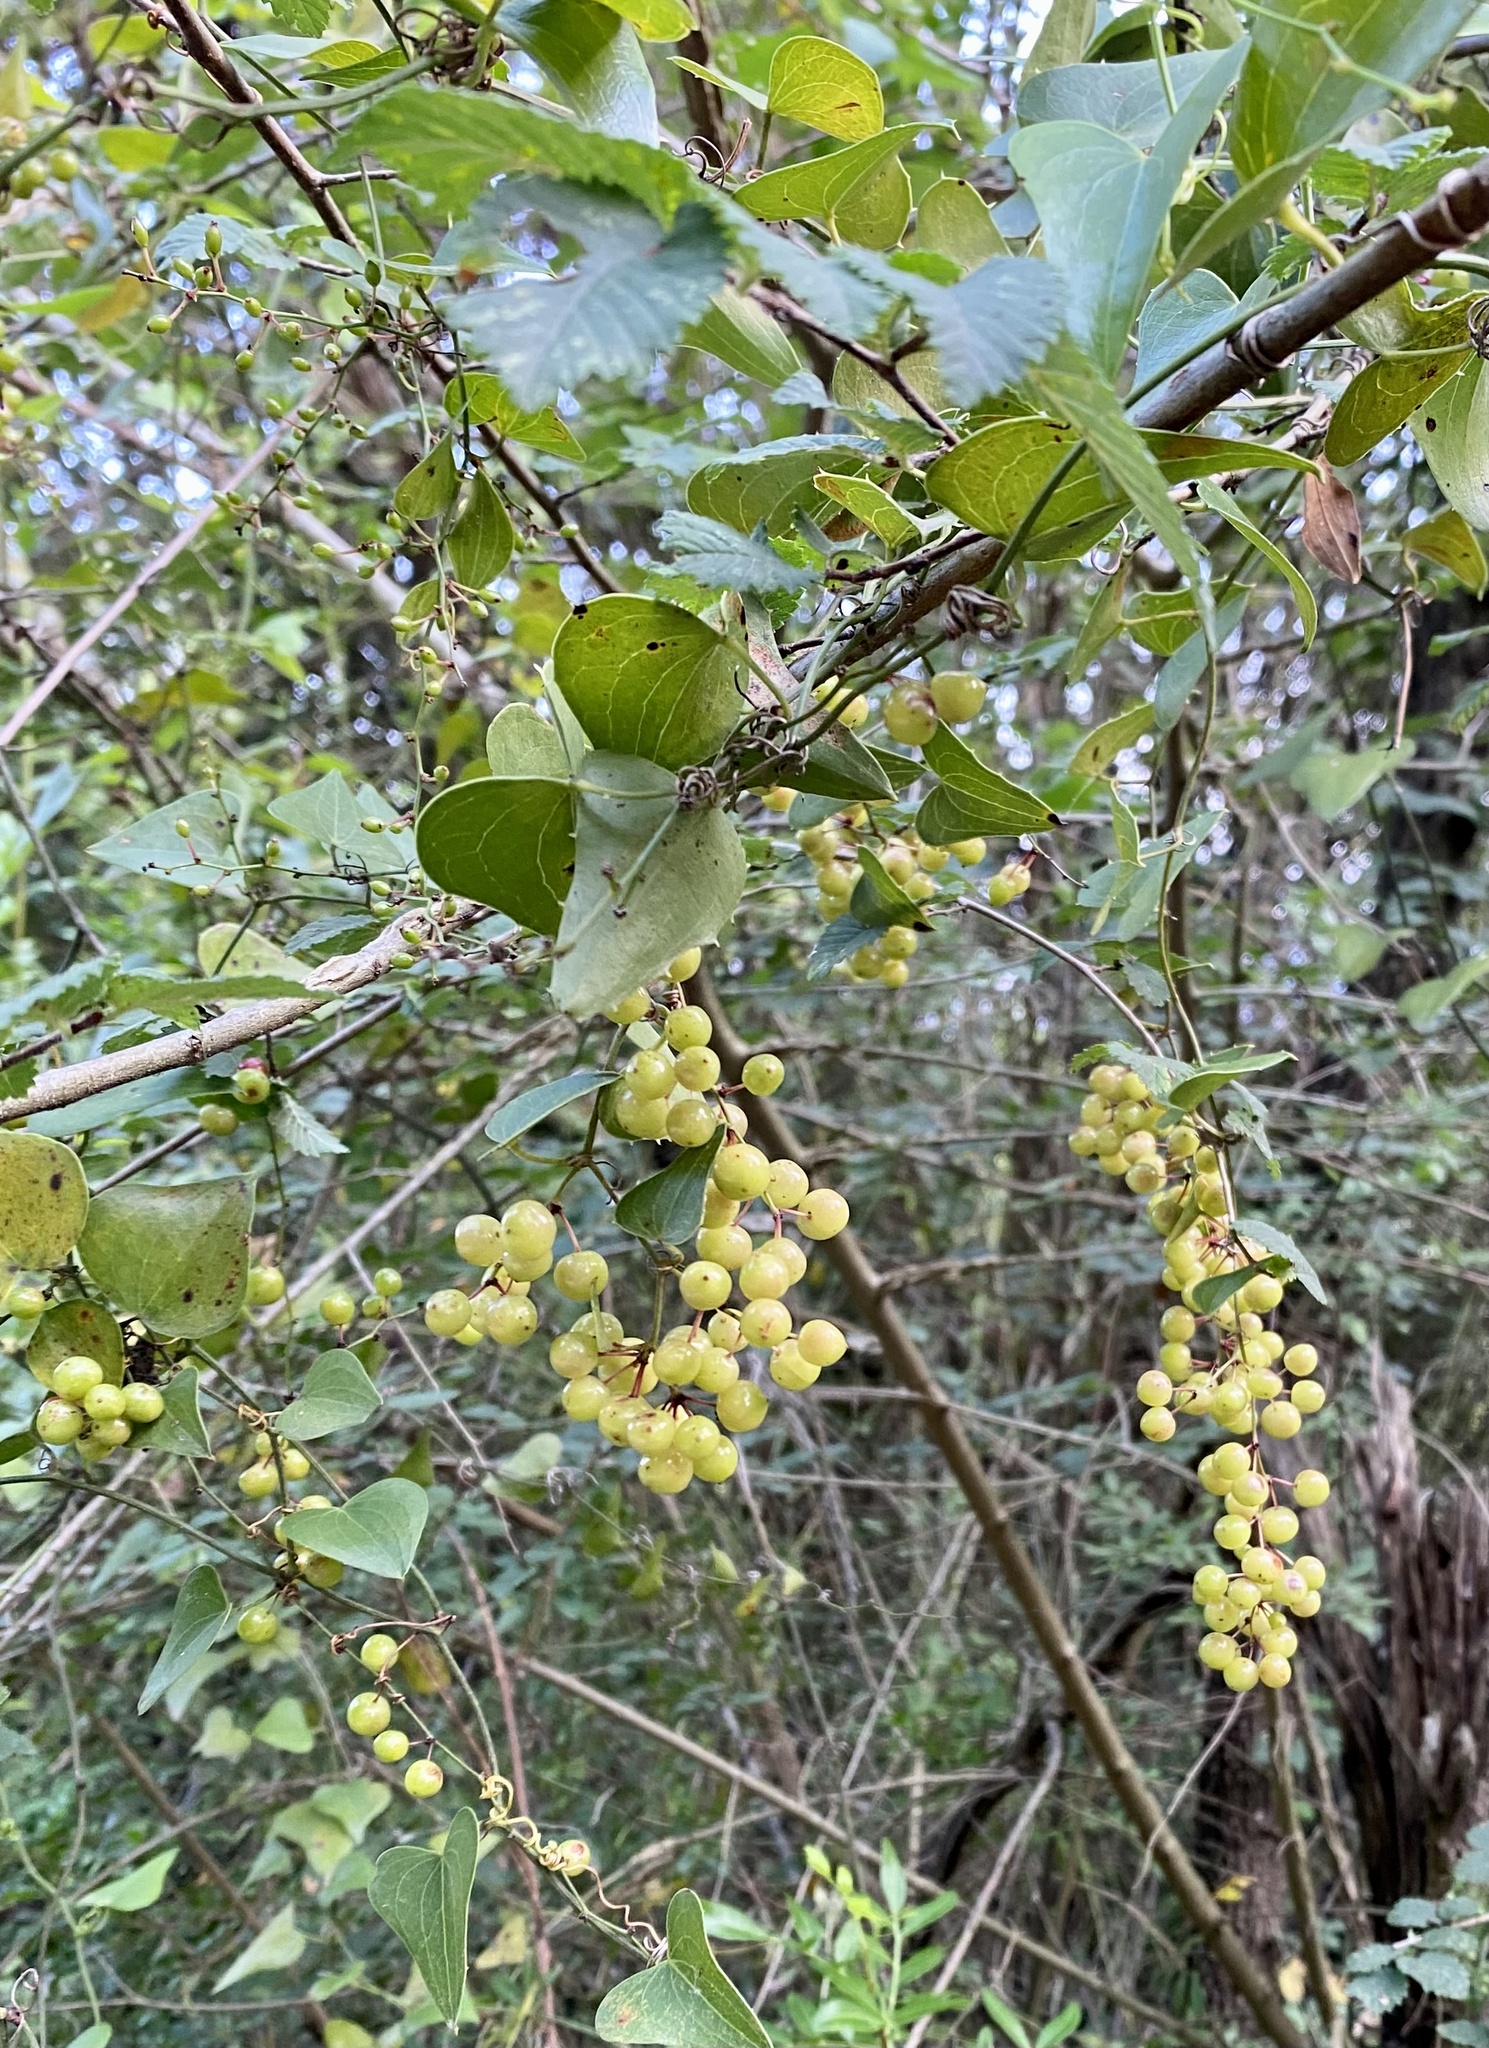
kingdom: Plantae
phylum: Tracheophyta
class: Liliopsida
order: Liliales
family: Smilacaceae
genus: Smilax
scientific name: Smilax aspera
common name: Common smilax
